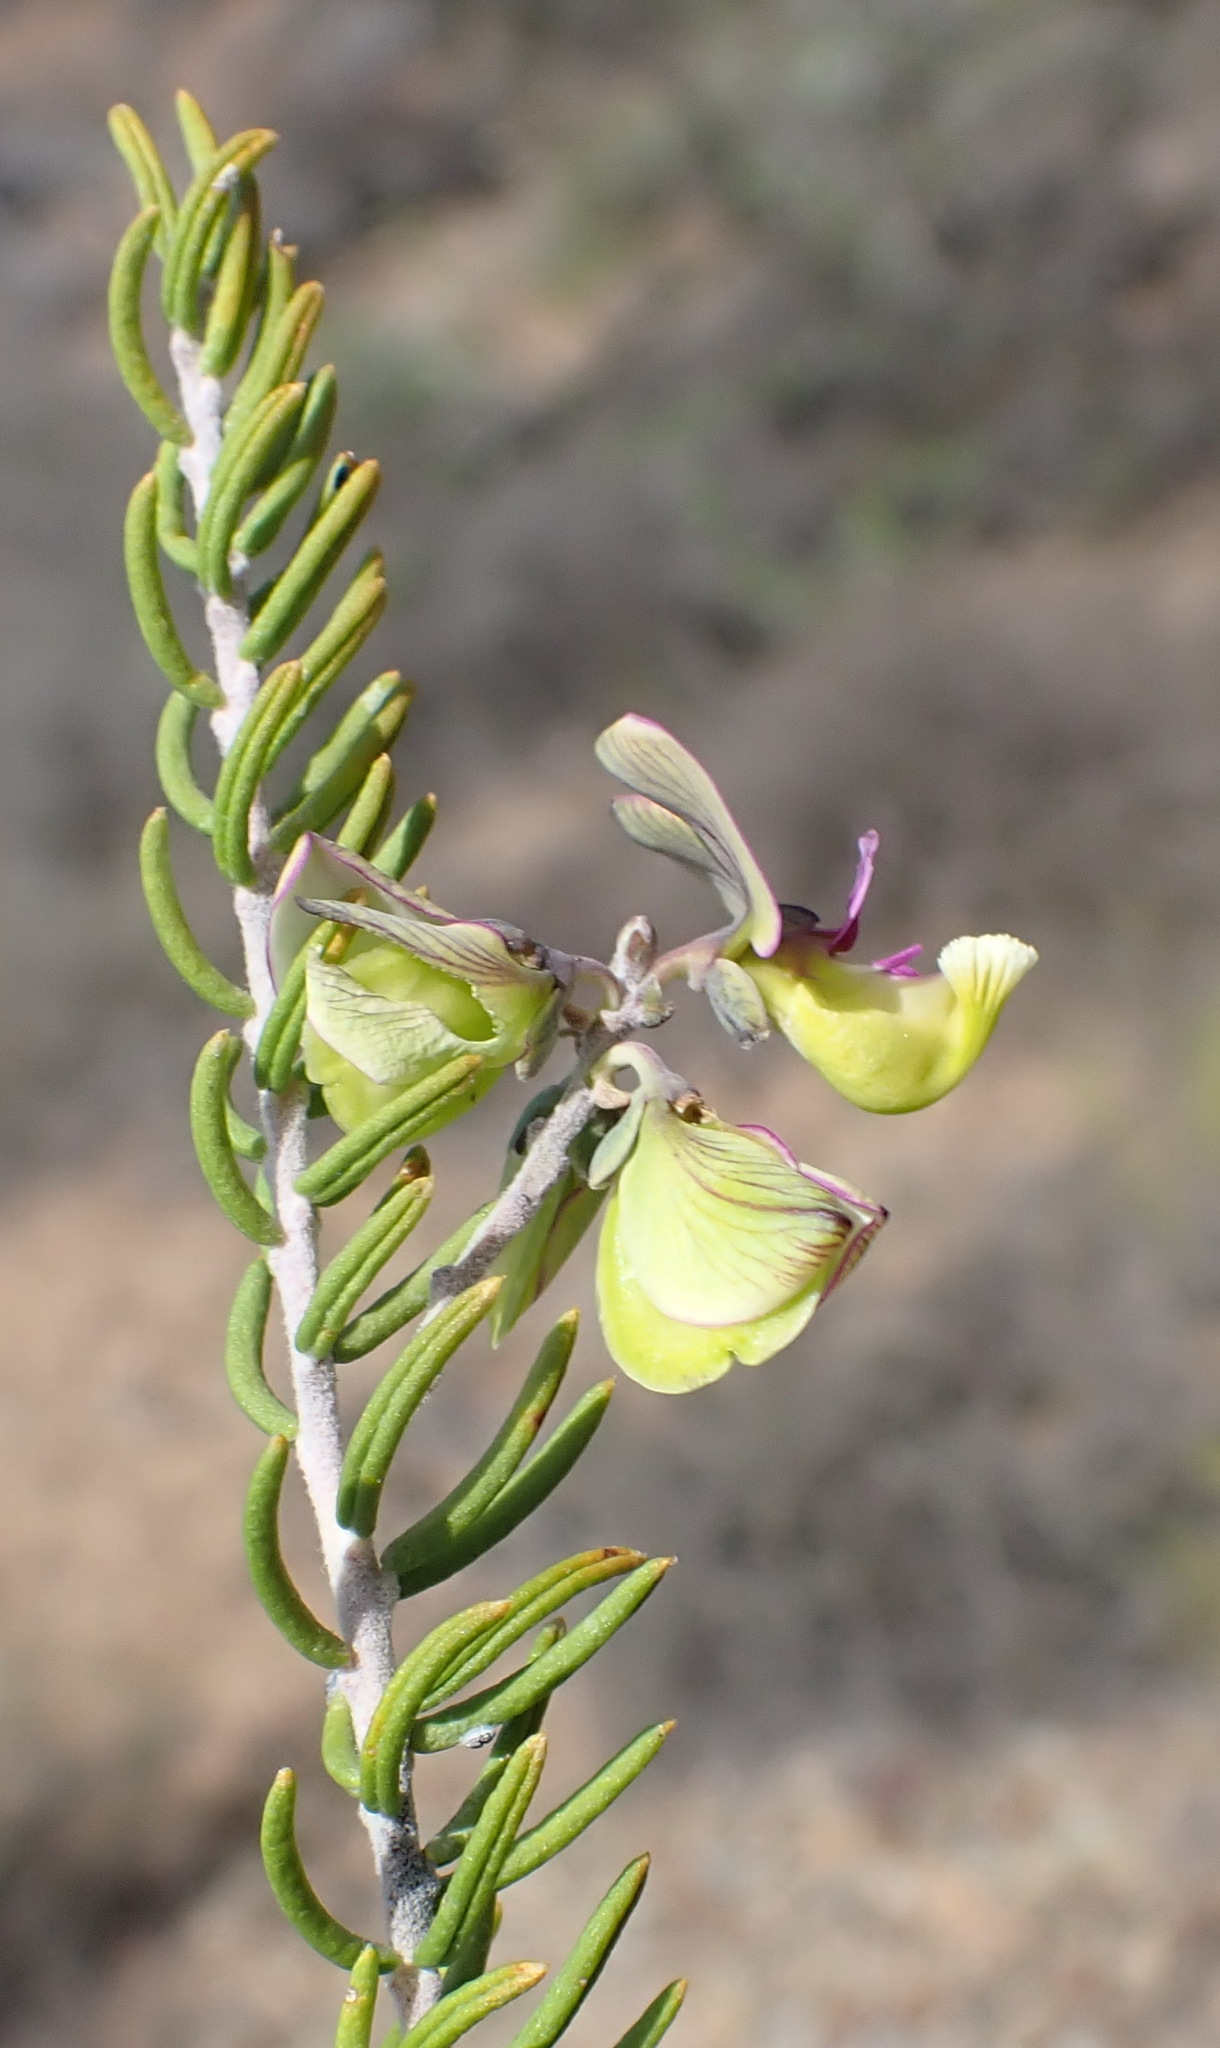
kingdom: Plantae
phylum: Tracheophyta
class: Magnoliopsida
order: Fabales
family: Polygalaceae
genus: Polygala
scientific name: Polygala teretifolia
